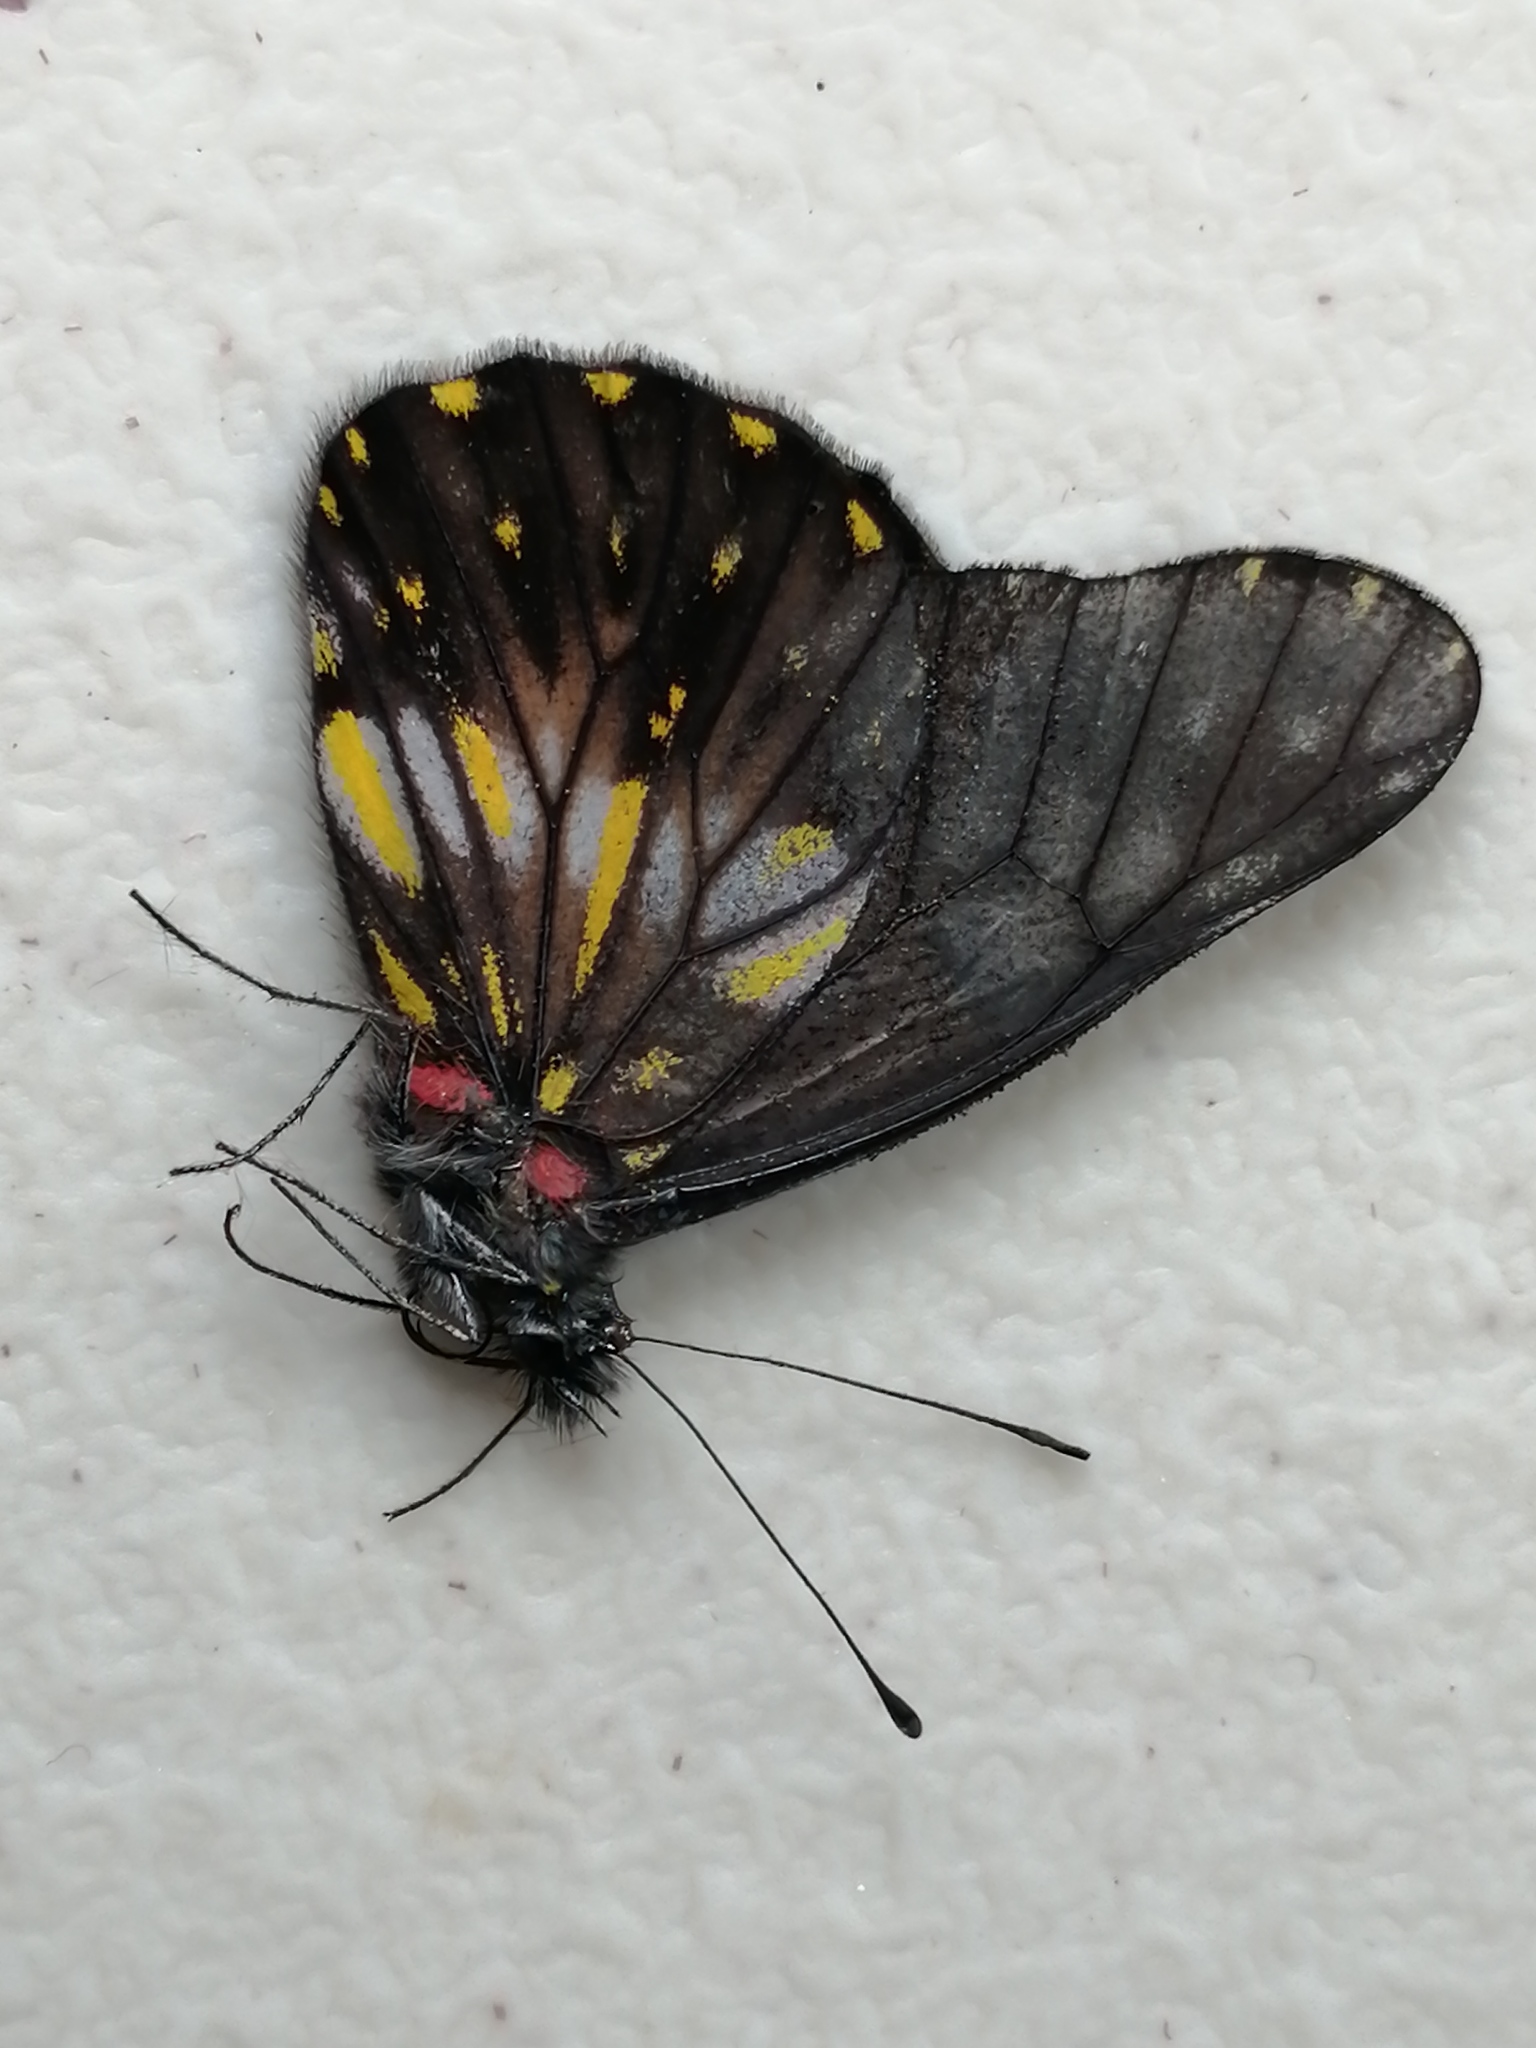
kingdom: Animalia
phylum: Arthropoda
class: Insecta
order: Lepidoptera
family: Pieridae
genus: Archonias
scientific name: Archonias flisa
